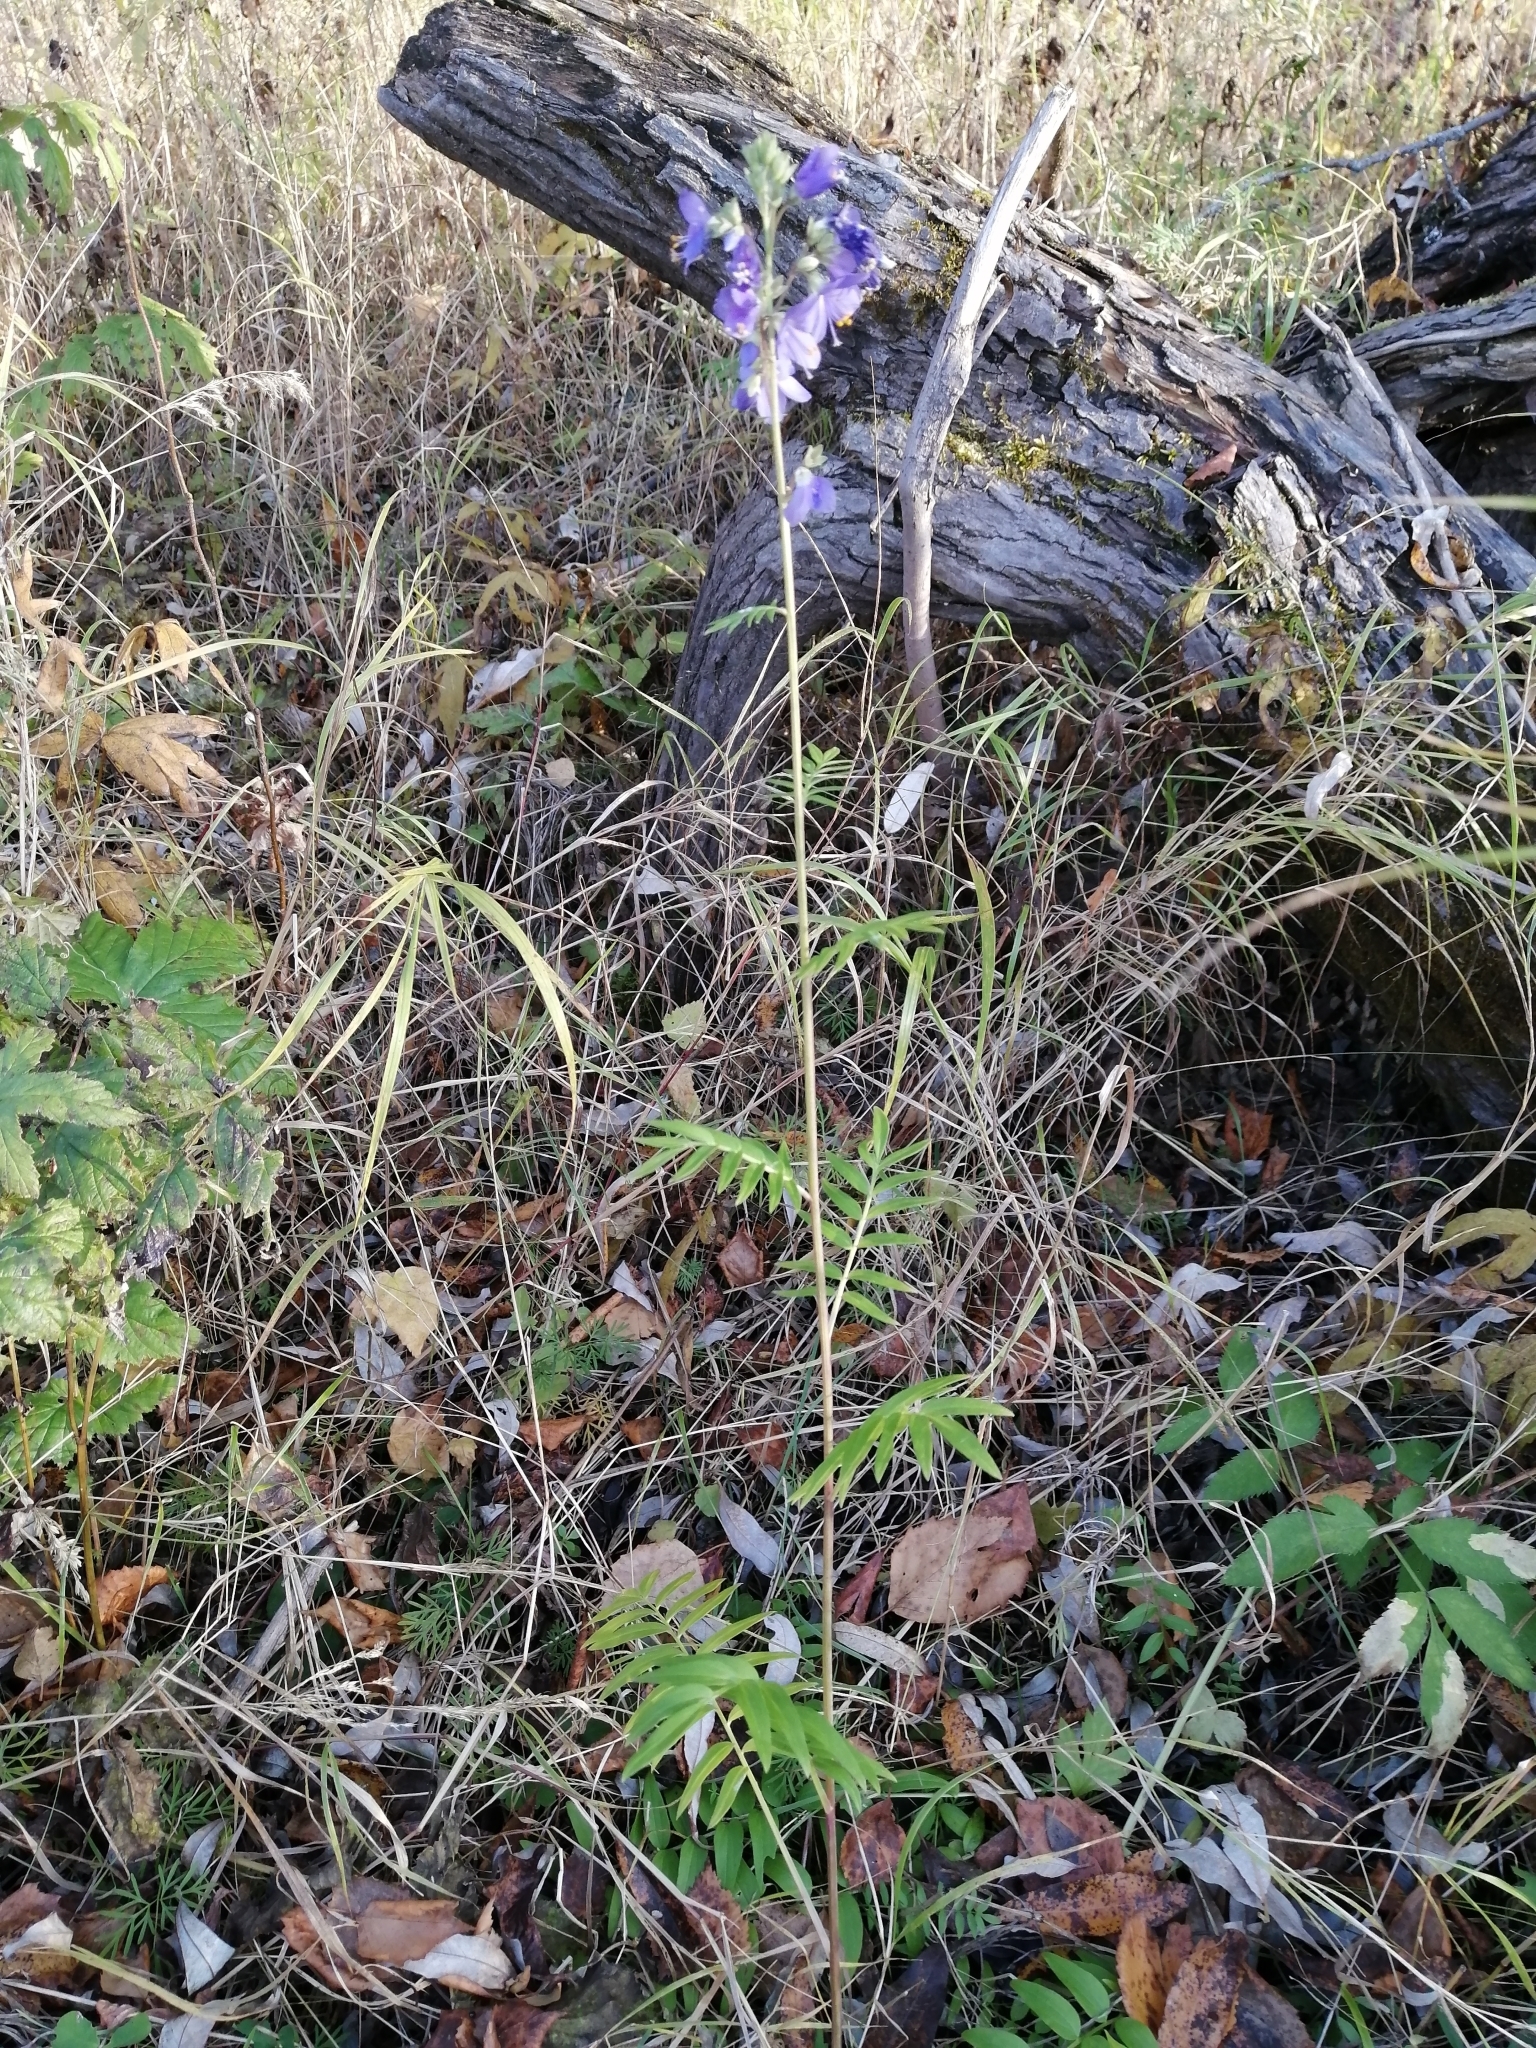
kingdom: Plantae
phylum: Tracheophyta
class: Magnoliopsida
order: Ericales
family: Polemoniaceae
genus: Polemonium
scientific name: Polemonium caeruleum
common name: Jacob's-ladder
